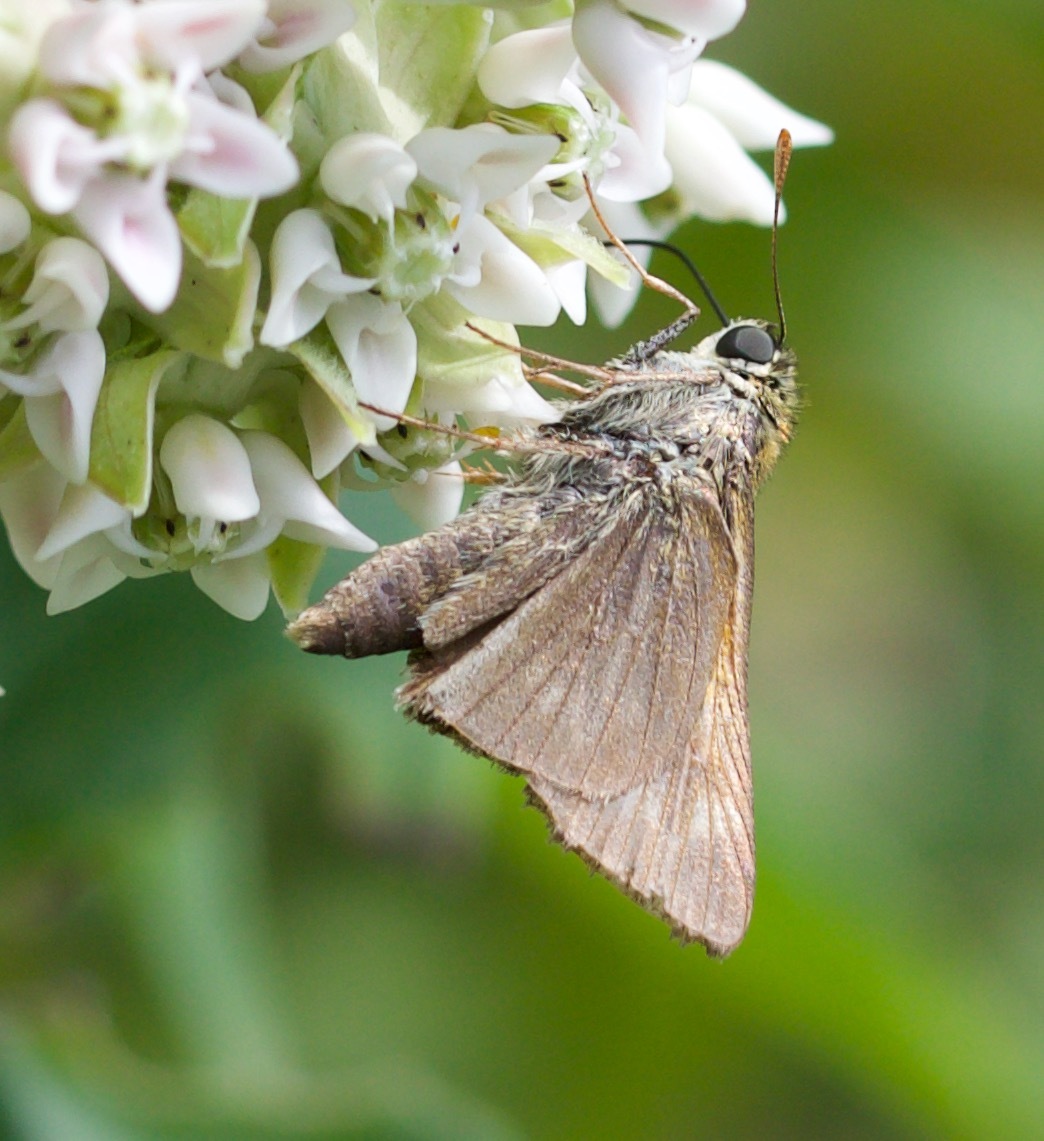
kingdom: Animalia
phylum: Arthropoda
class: Insecta
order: Lepidoptera
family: Hesperiidae
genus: Polites
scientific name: Polites themistocles
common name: Tawny-edged skipper
